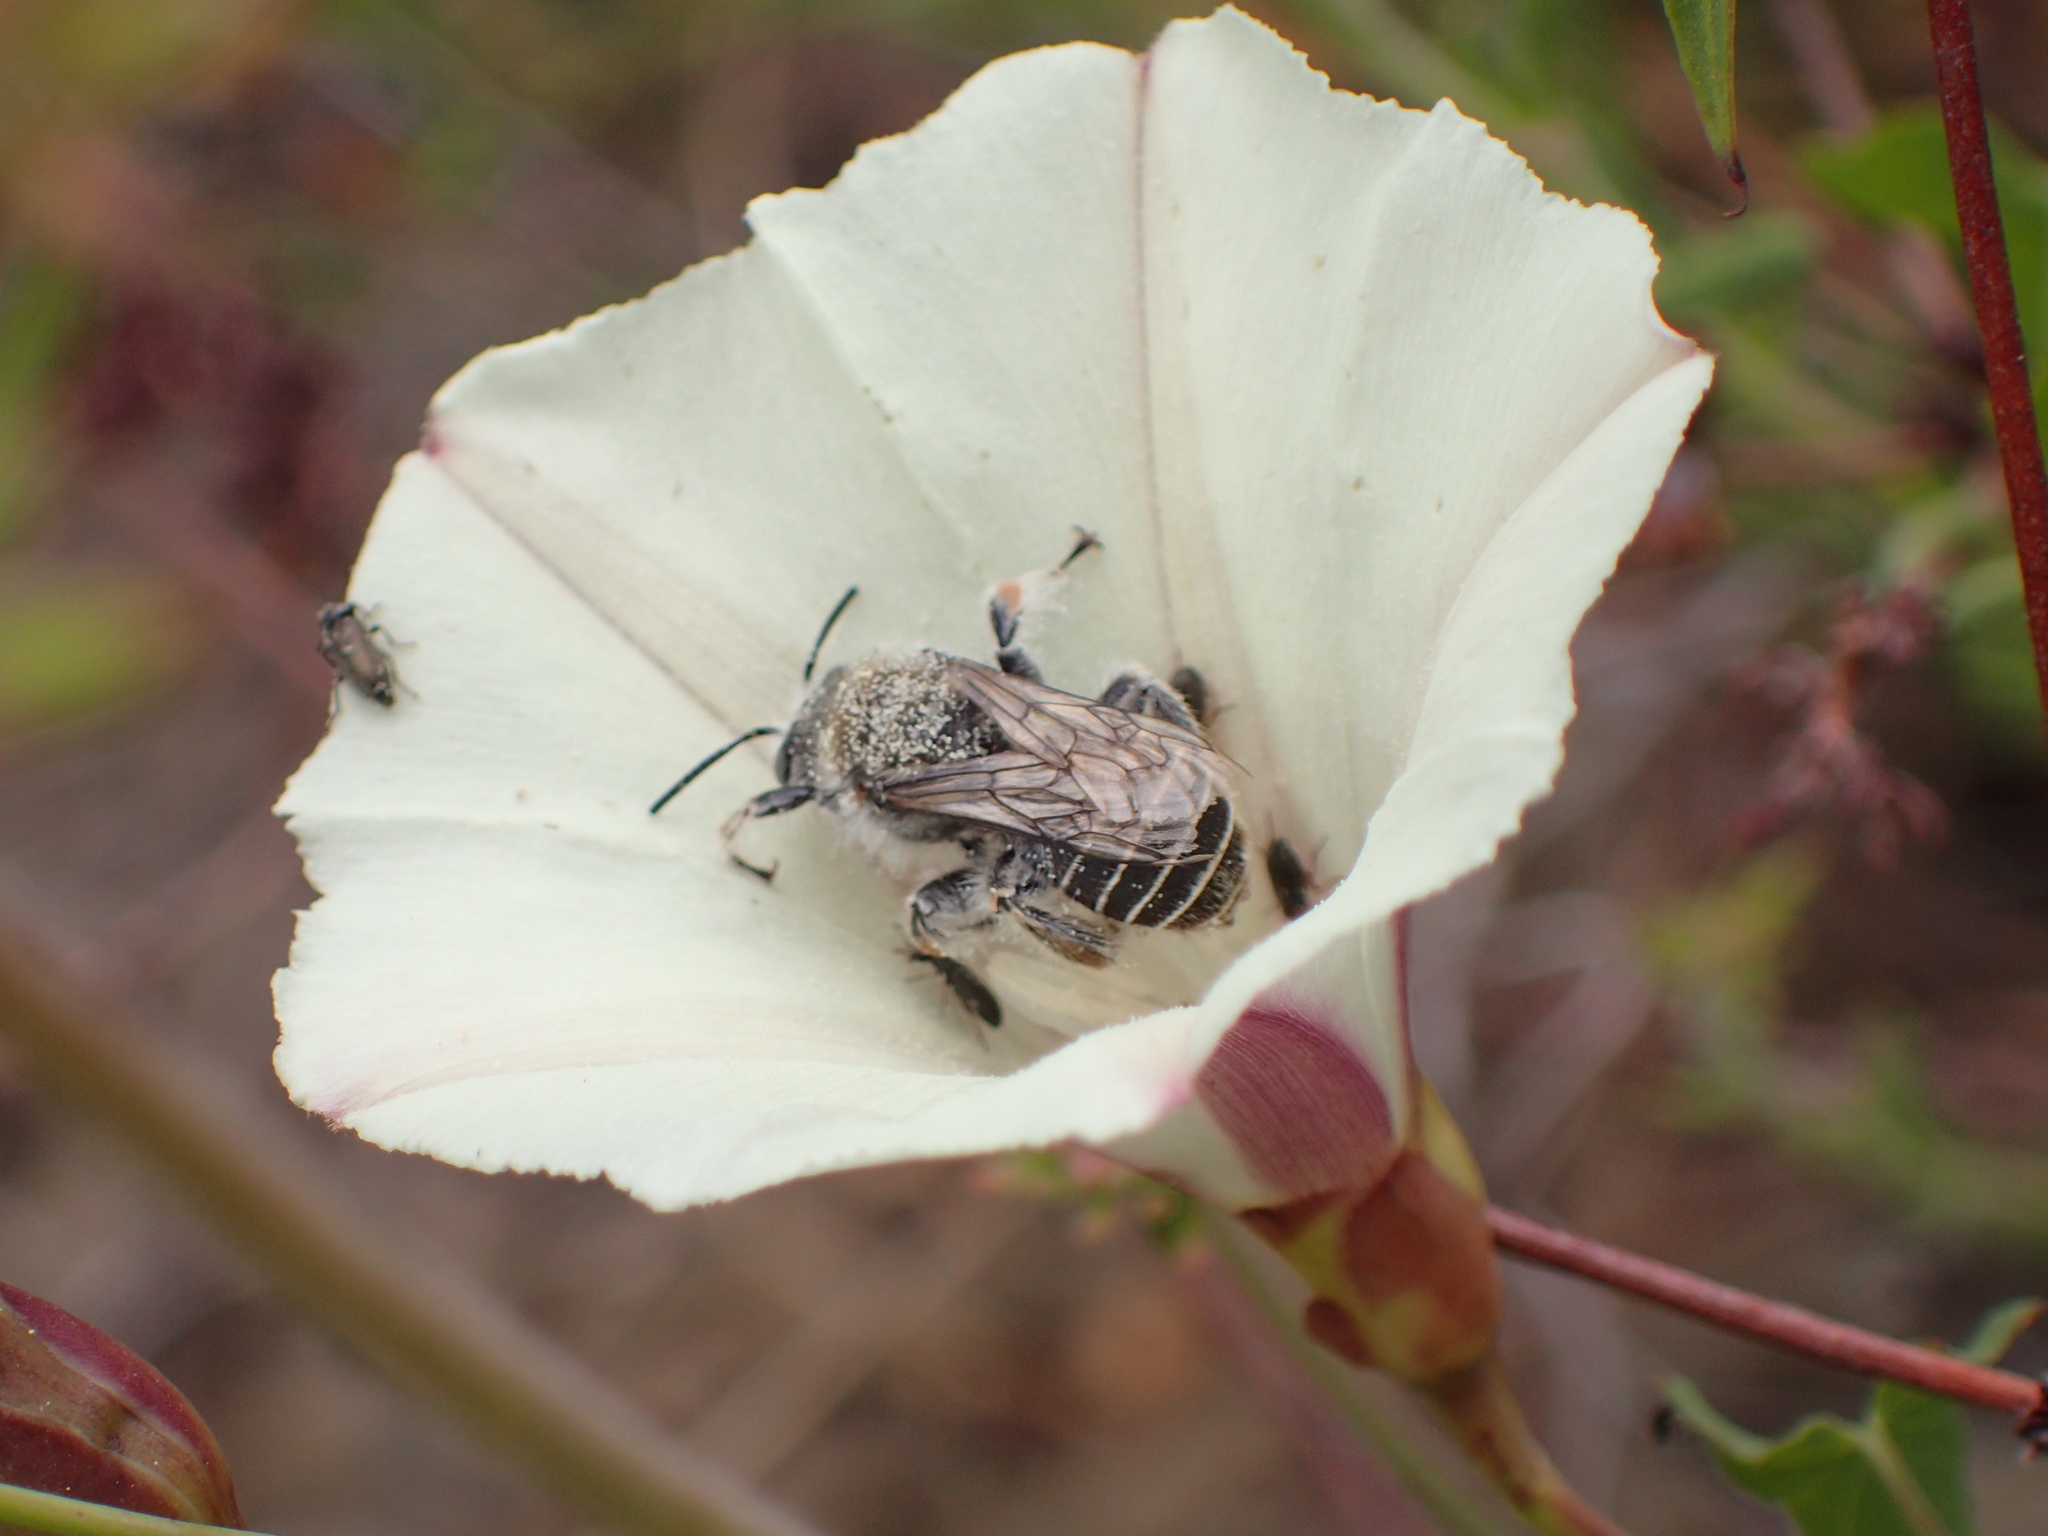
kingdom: Animalia
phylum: Arthropoda
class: Insecta
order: Hymenoptera
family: Apidae
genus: Diadasia
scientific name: Diadasia bituberculata
